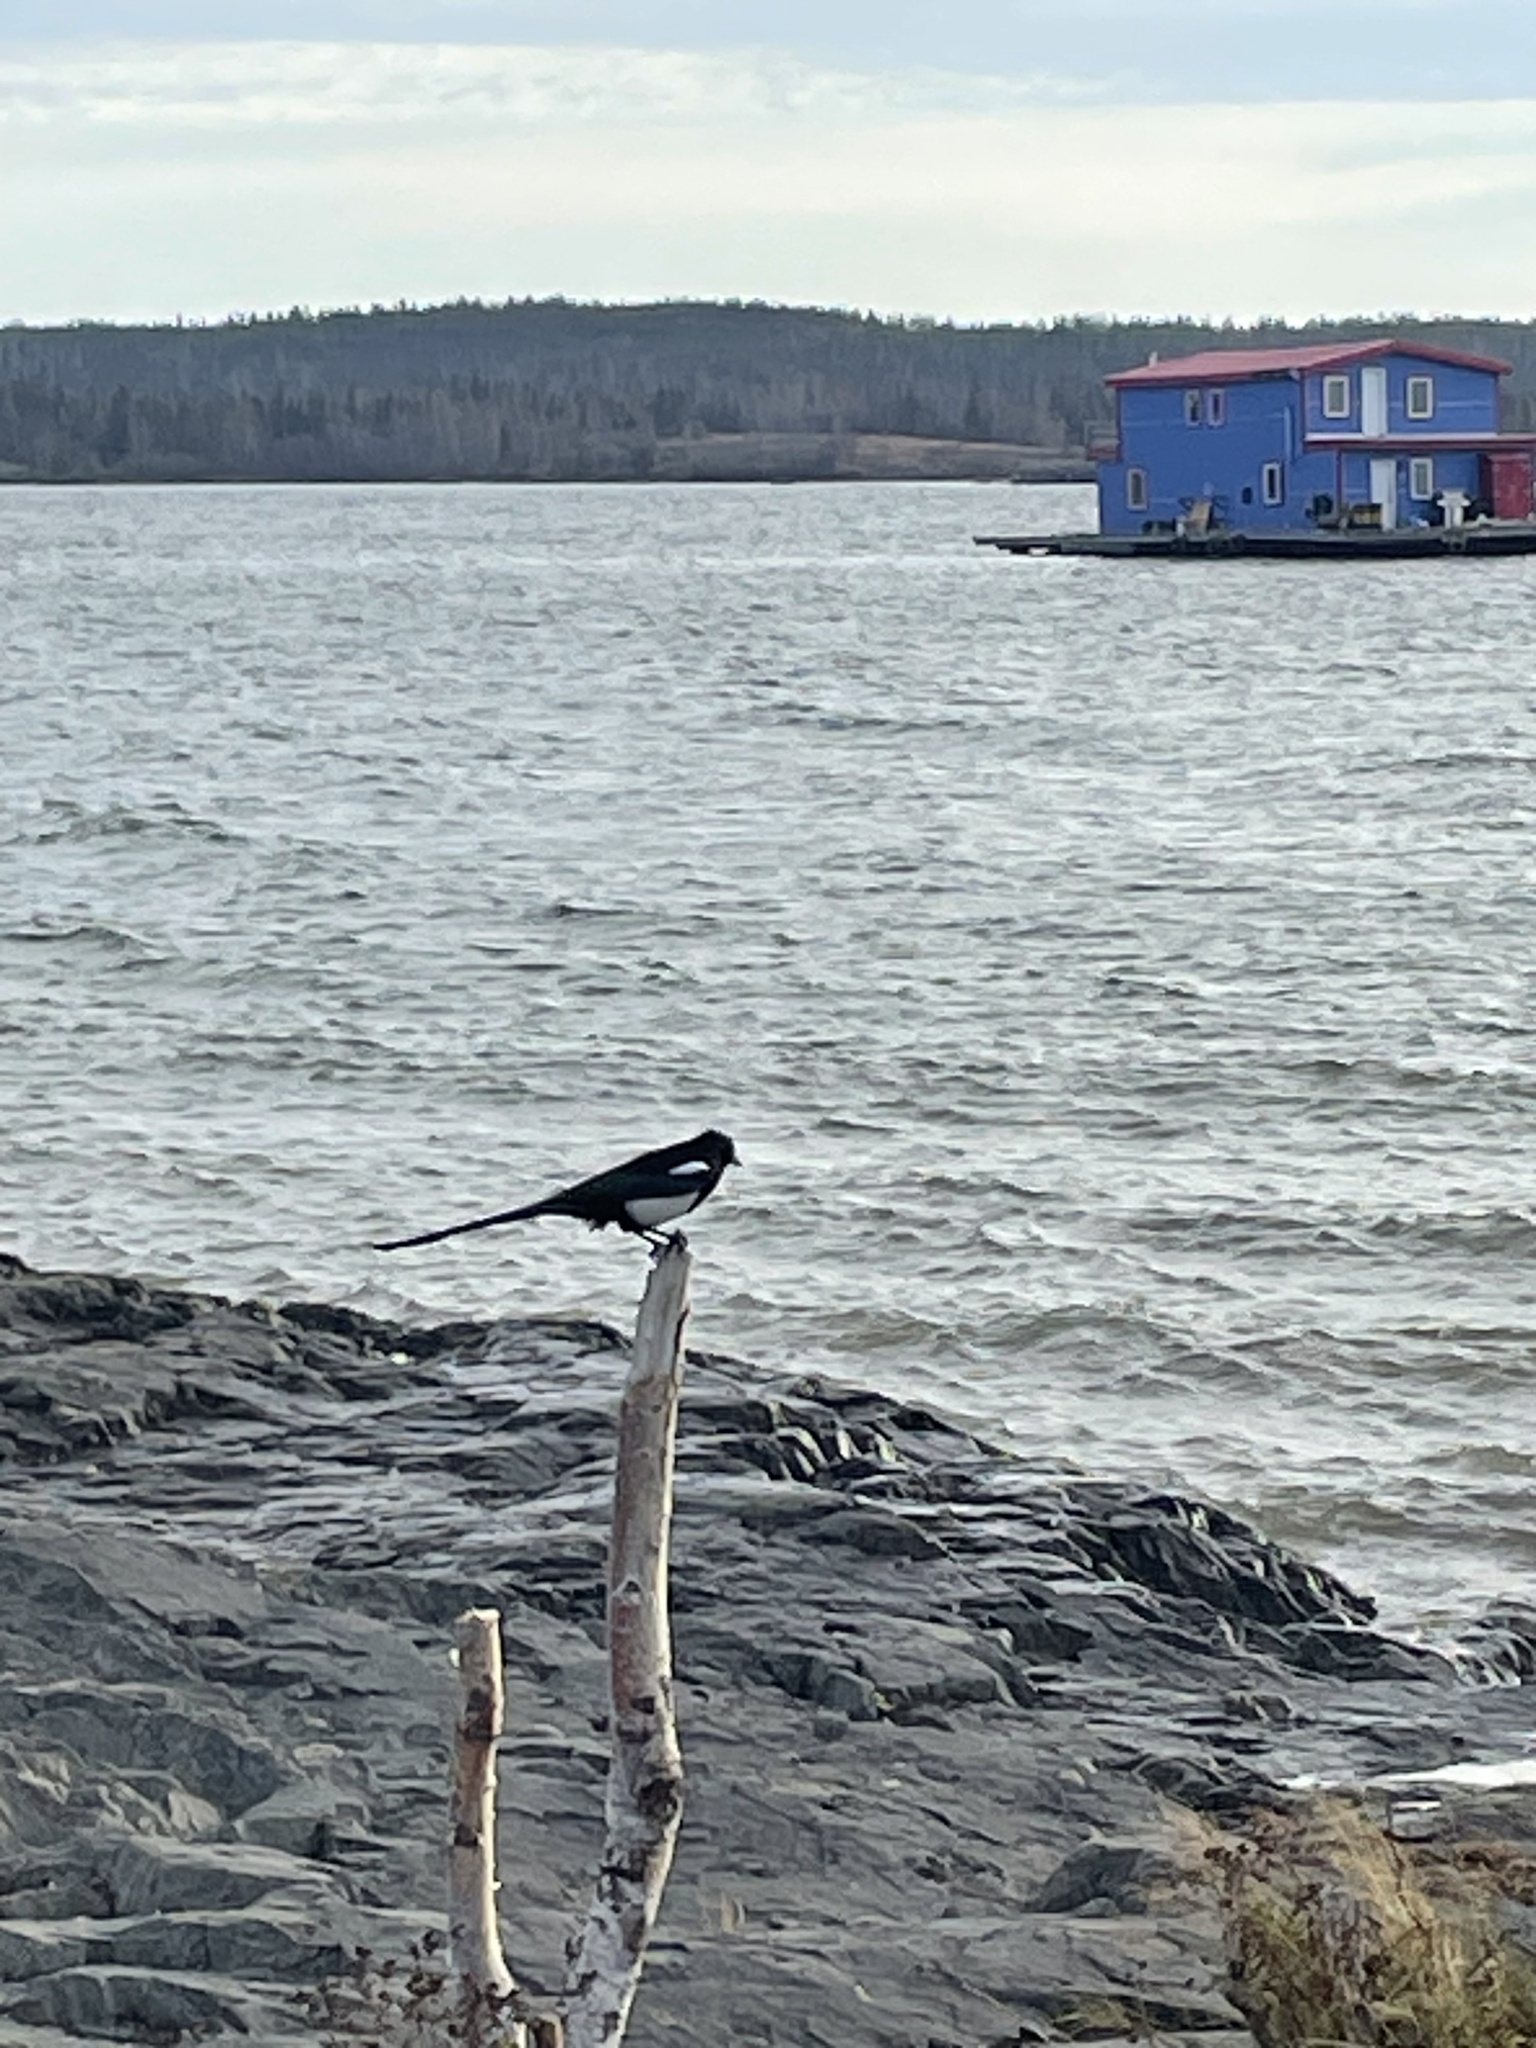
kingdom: Animalia
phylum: Chordata
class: Aves
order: Passeriformes
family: Corvidae
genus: Pica
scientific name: Pica hudsonia
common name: Black-billed magpie
